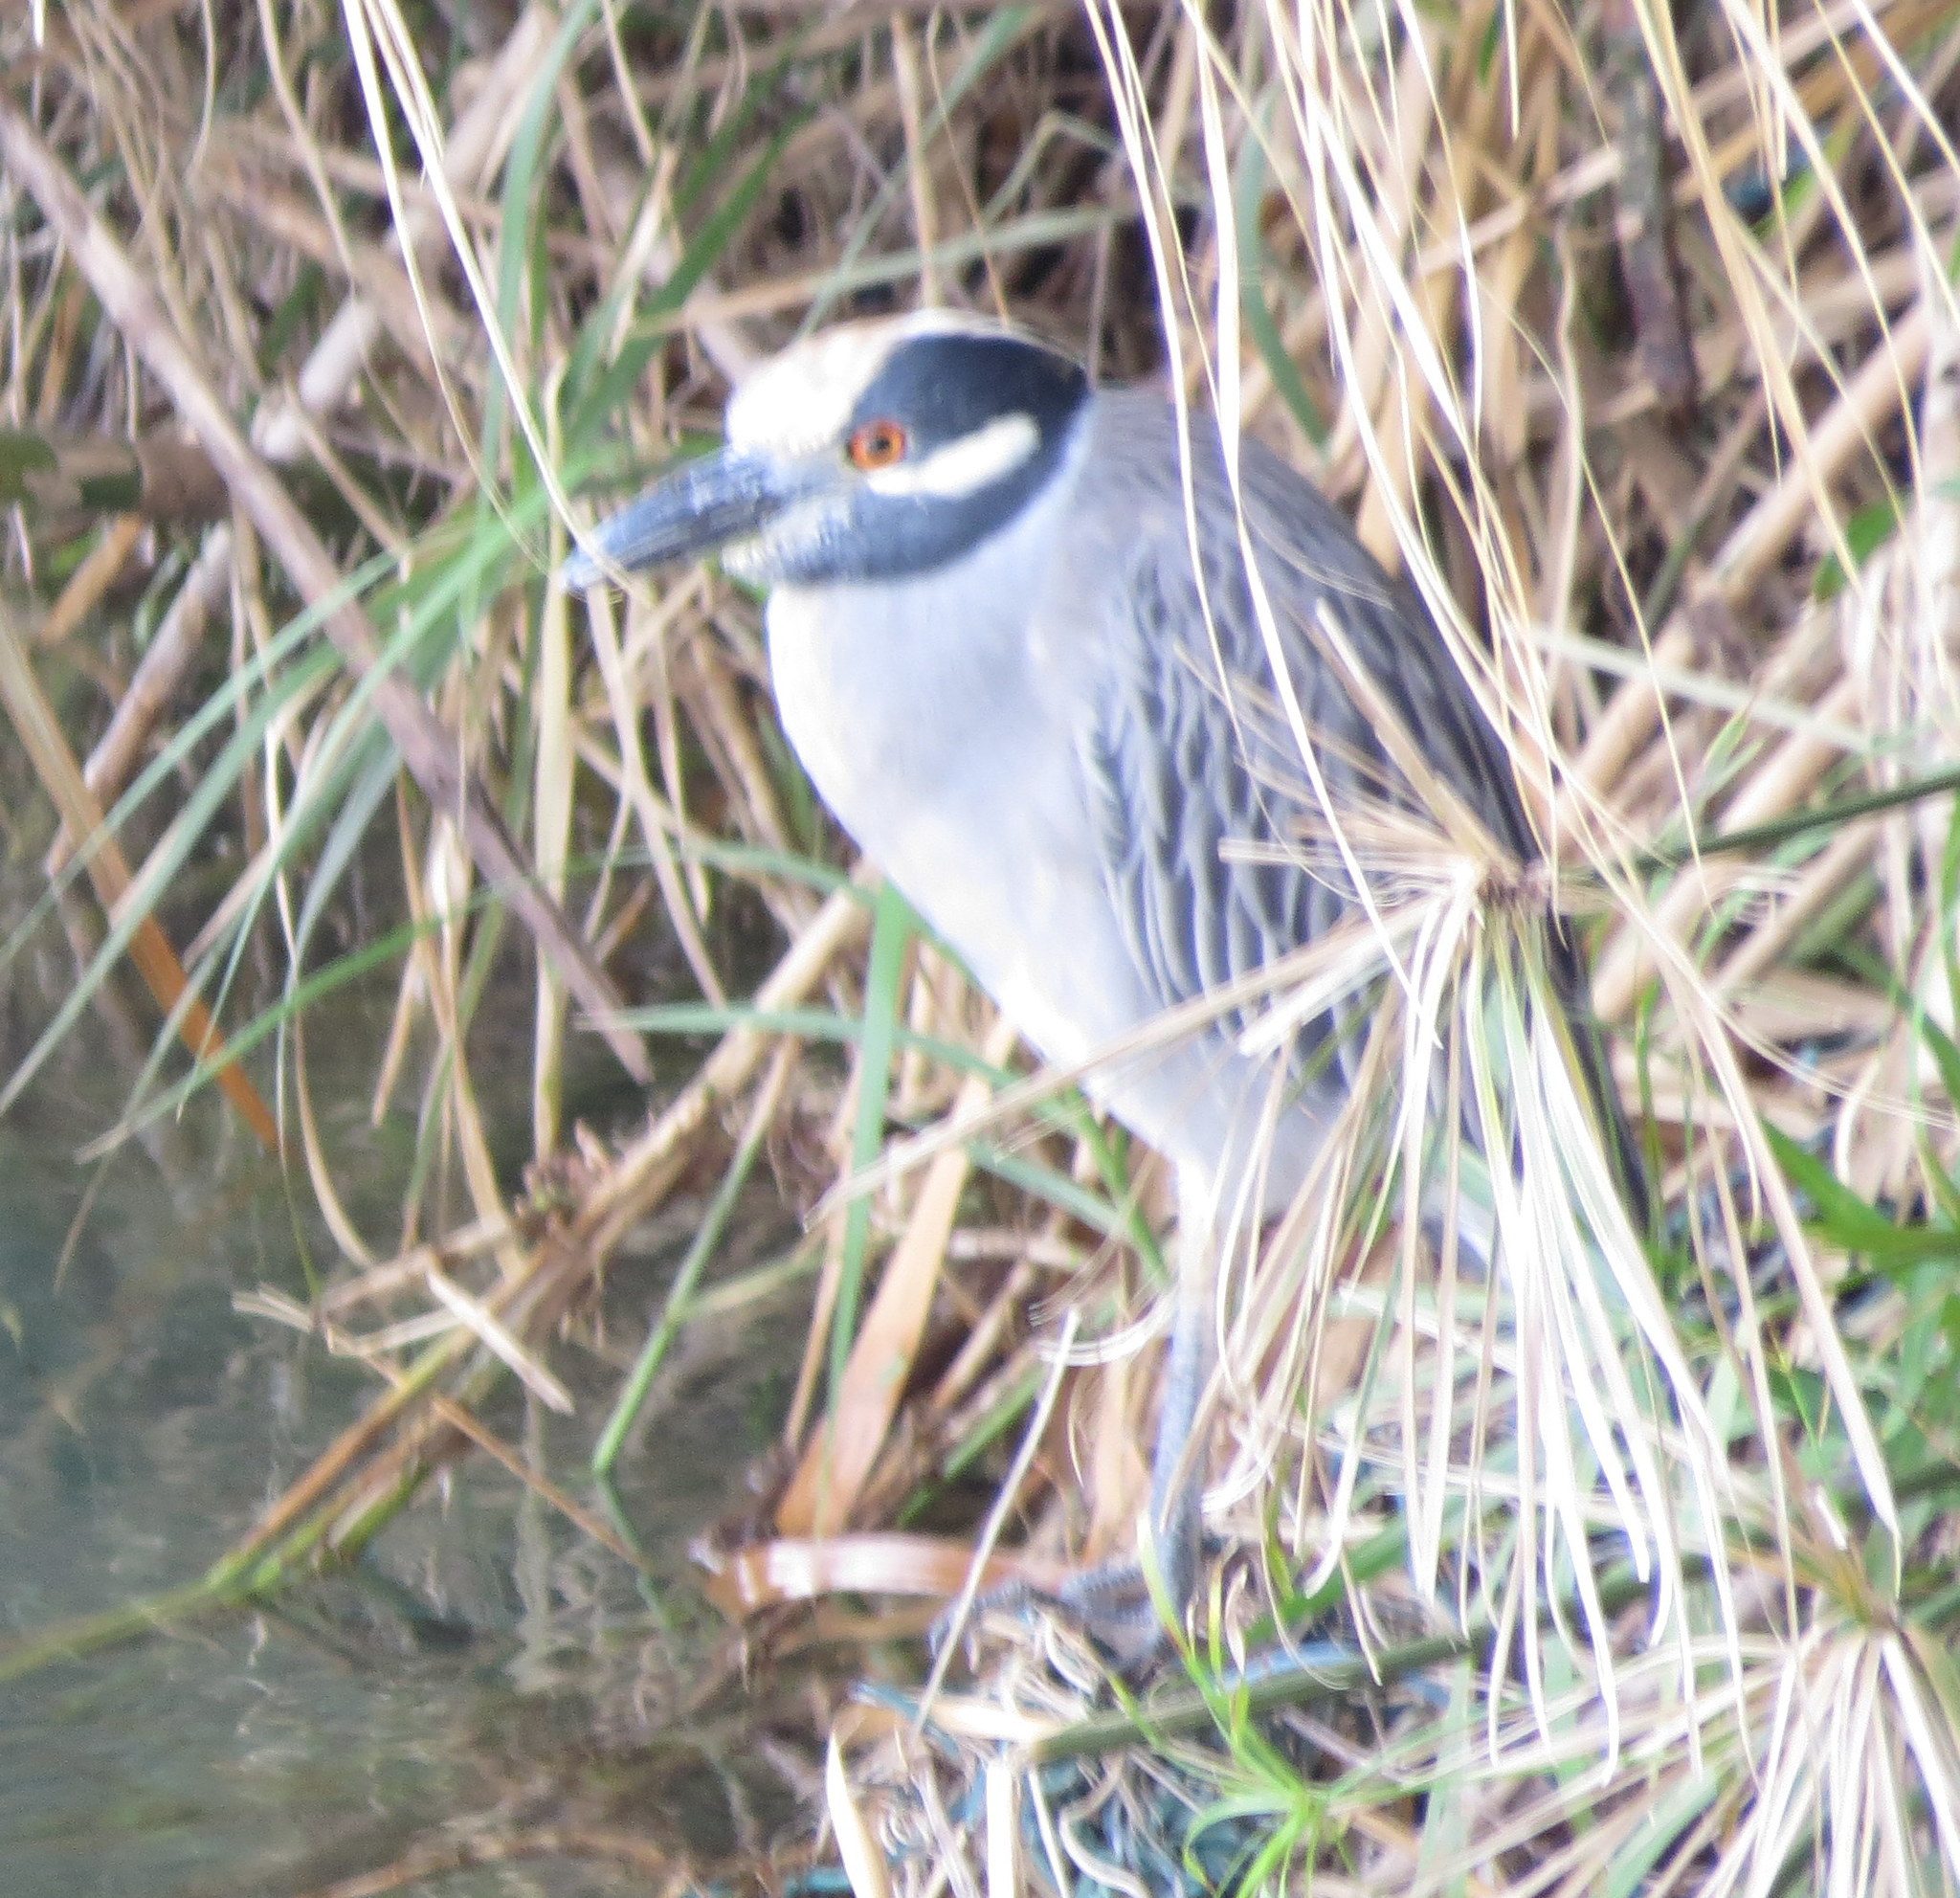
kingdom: Animalia
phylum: Chordata
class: Aves
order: Pelecaniformes
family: Ardeidae
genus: Nyctanassa
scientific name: Nyctanassa violacea
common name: Yellow-crowned night heron
